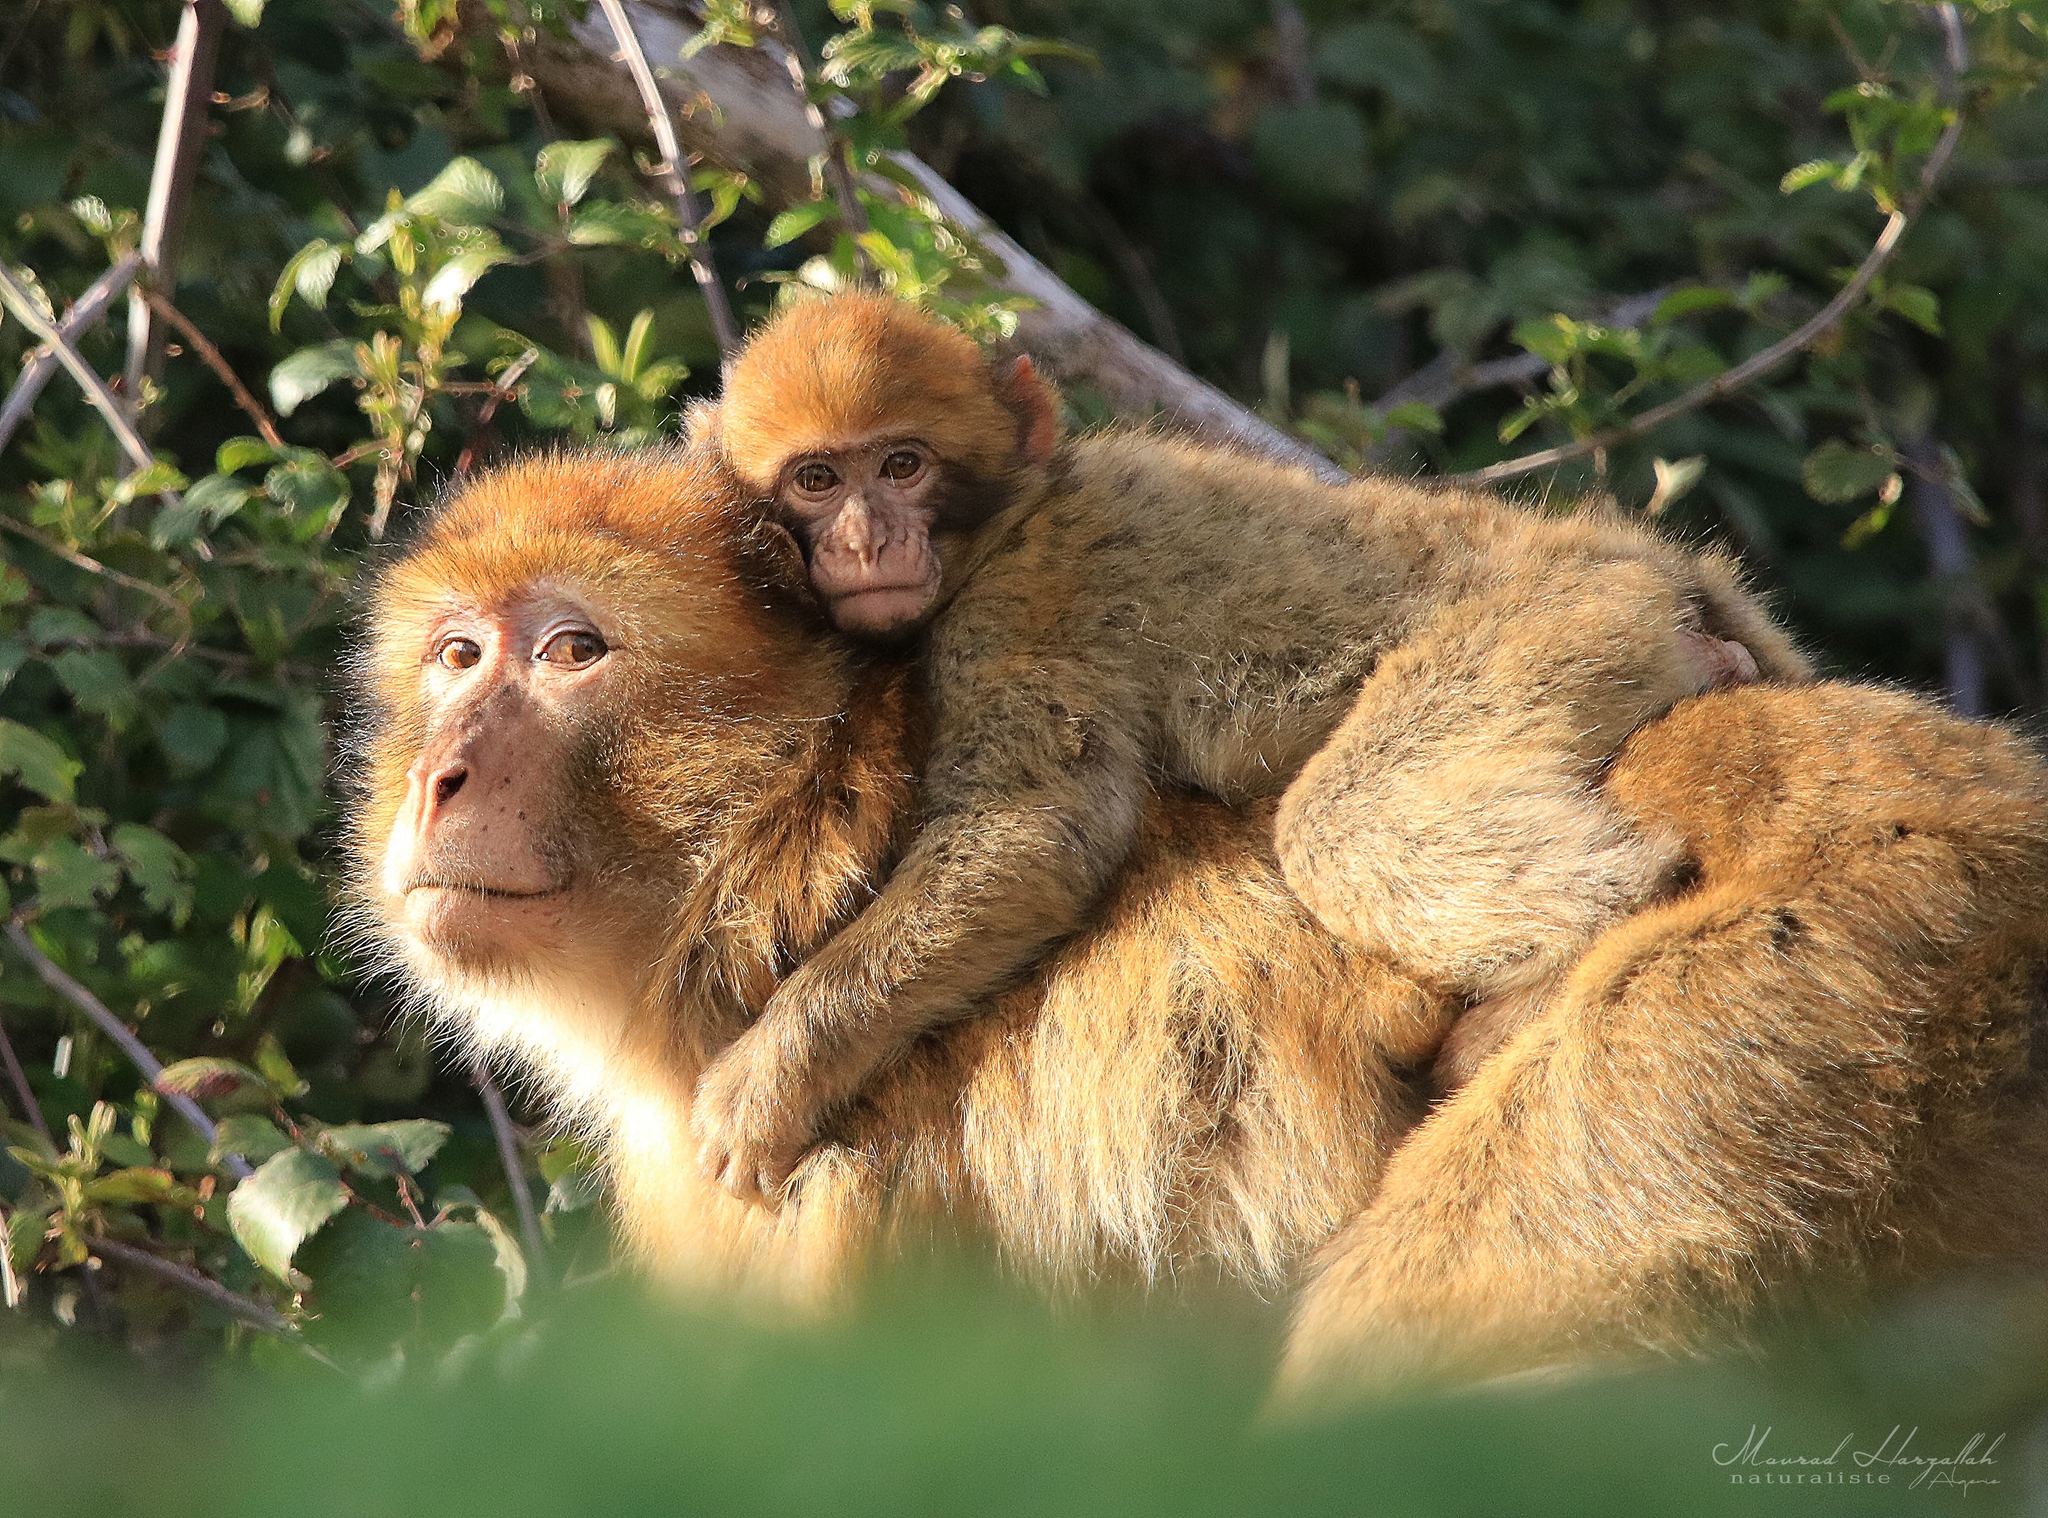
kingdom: Animalia
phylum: Chordata
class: Mammalia
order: Primates
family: Cercopithecidae
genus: Macaca
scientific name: Macaca sylvanus
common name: Barbary macaque
